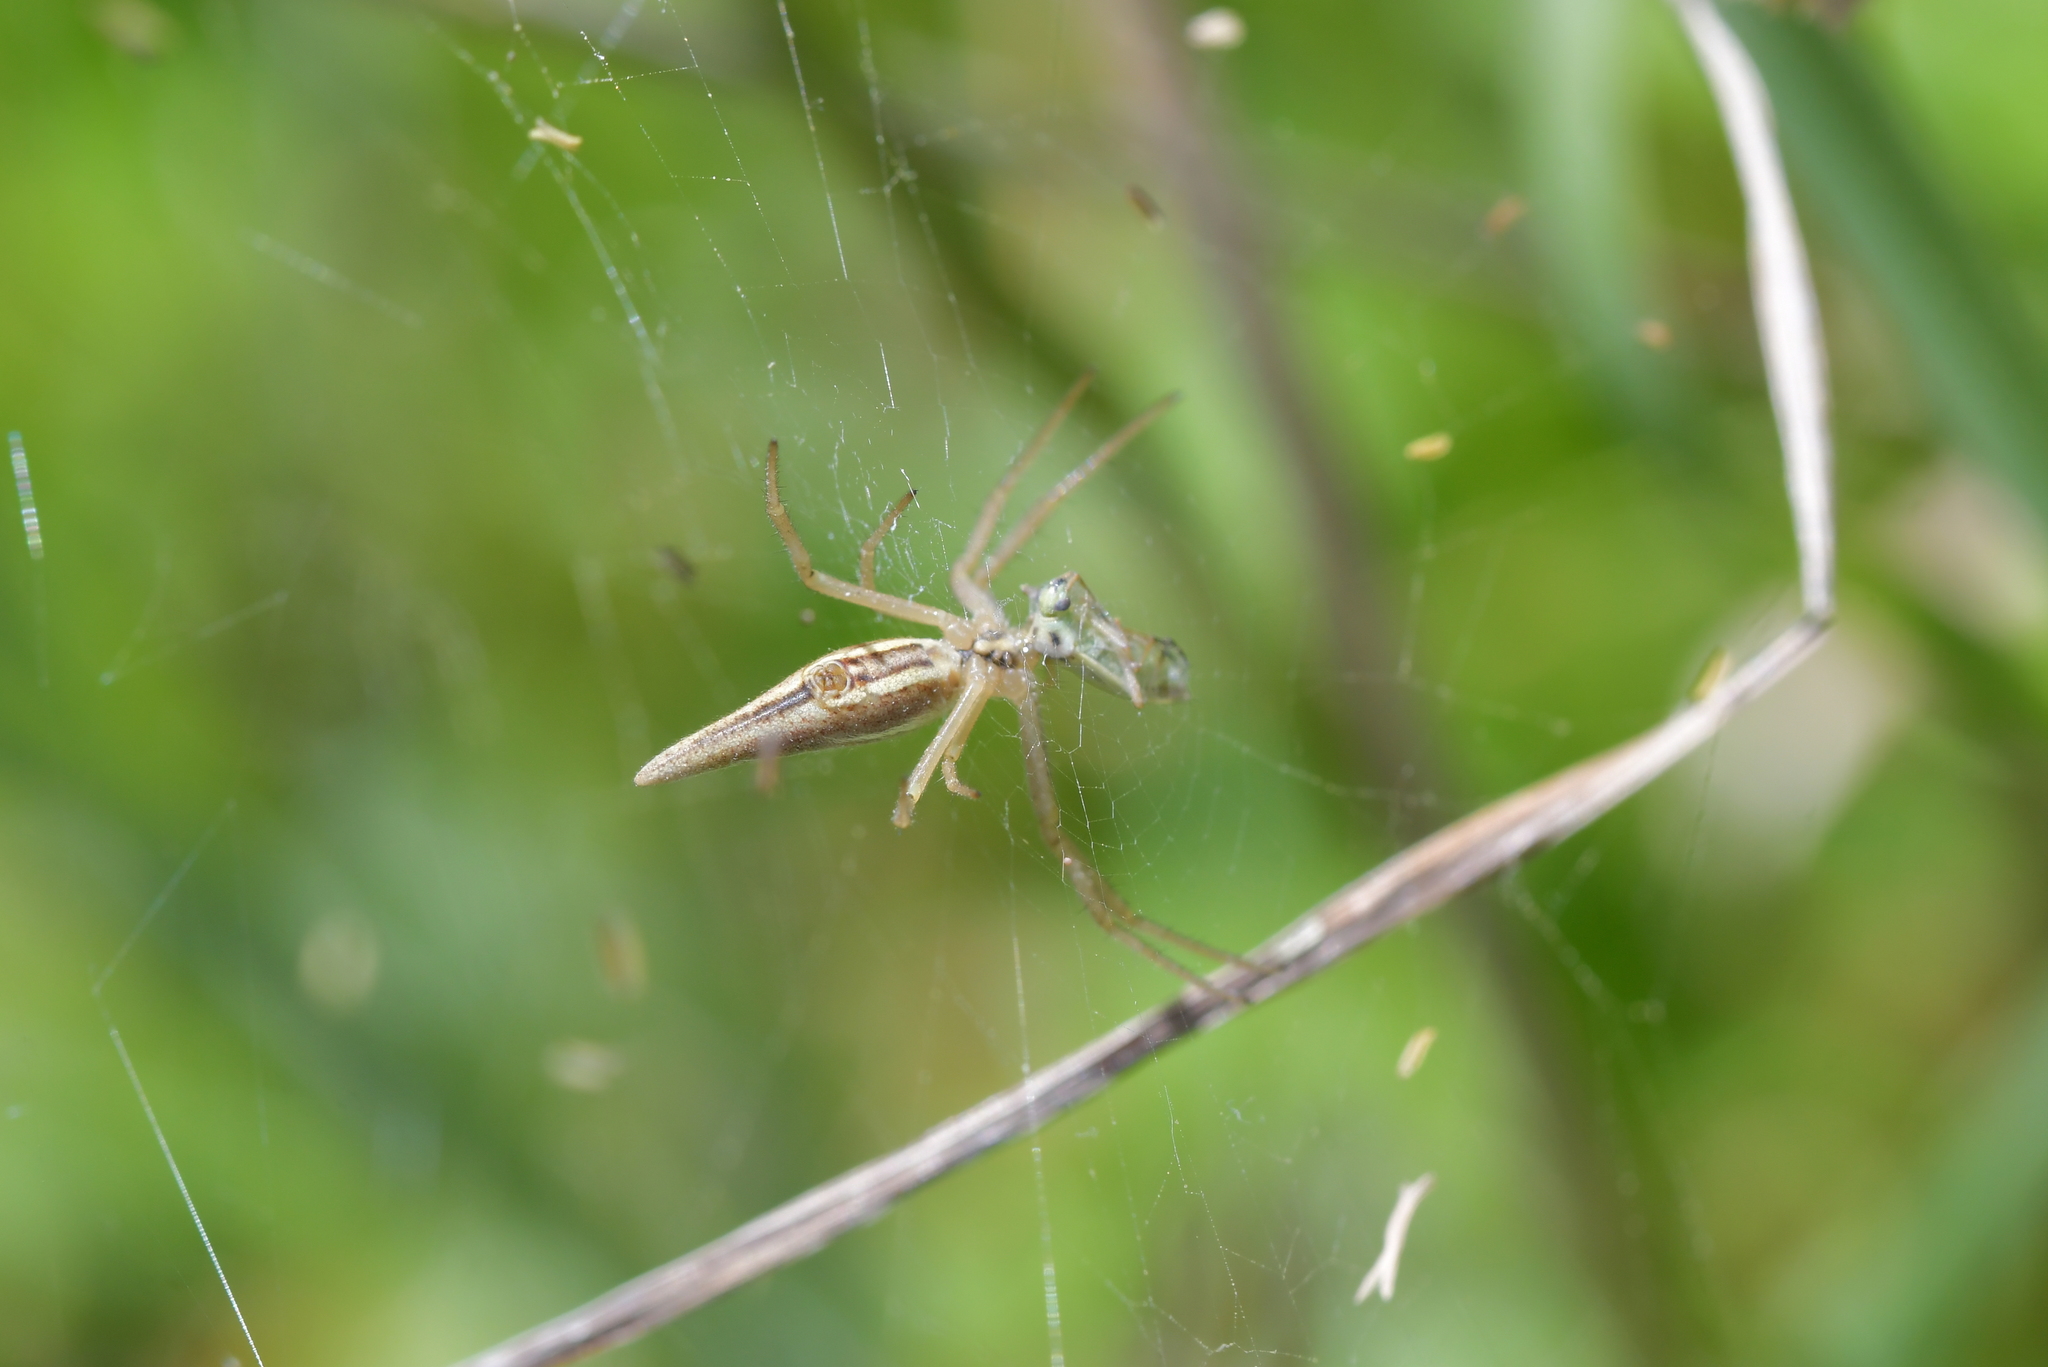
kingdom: Animalia
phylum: Arthropoda
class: Arachnida
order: Araneae
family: Araneidae
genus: Argiope
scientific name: Argiope protensa
